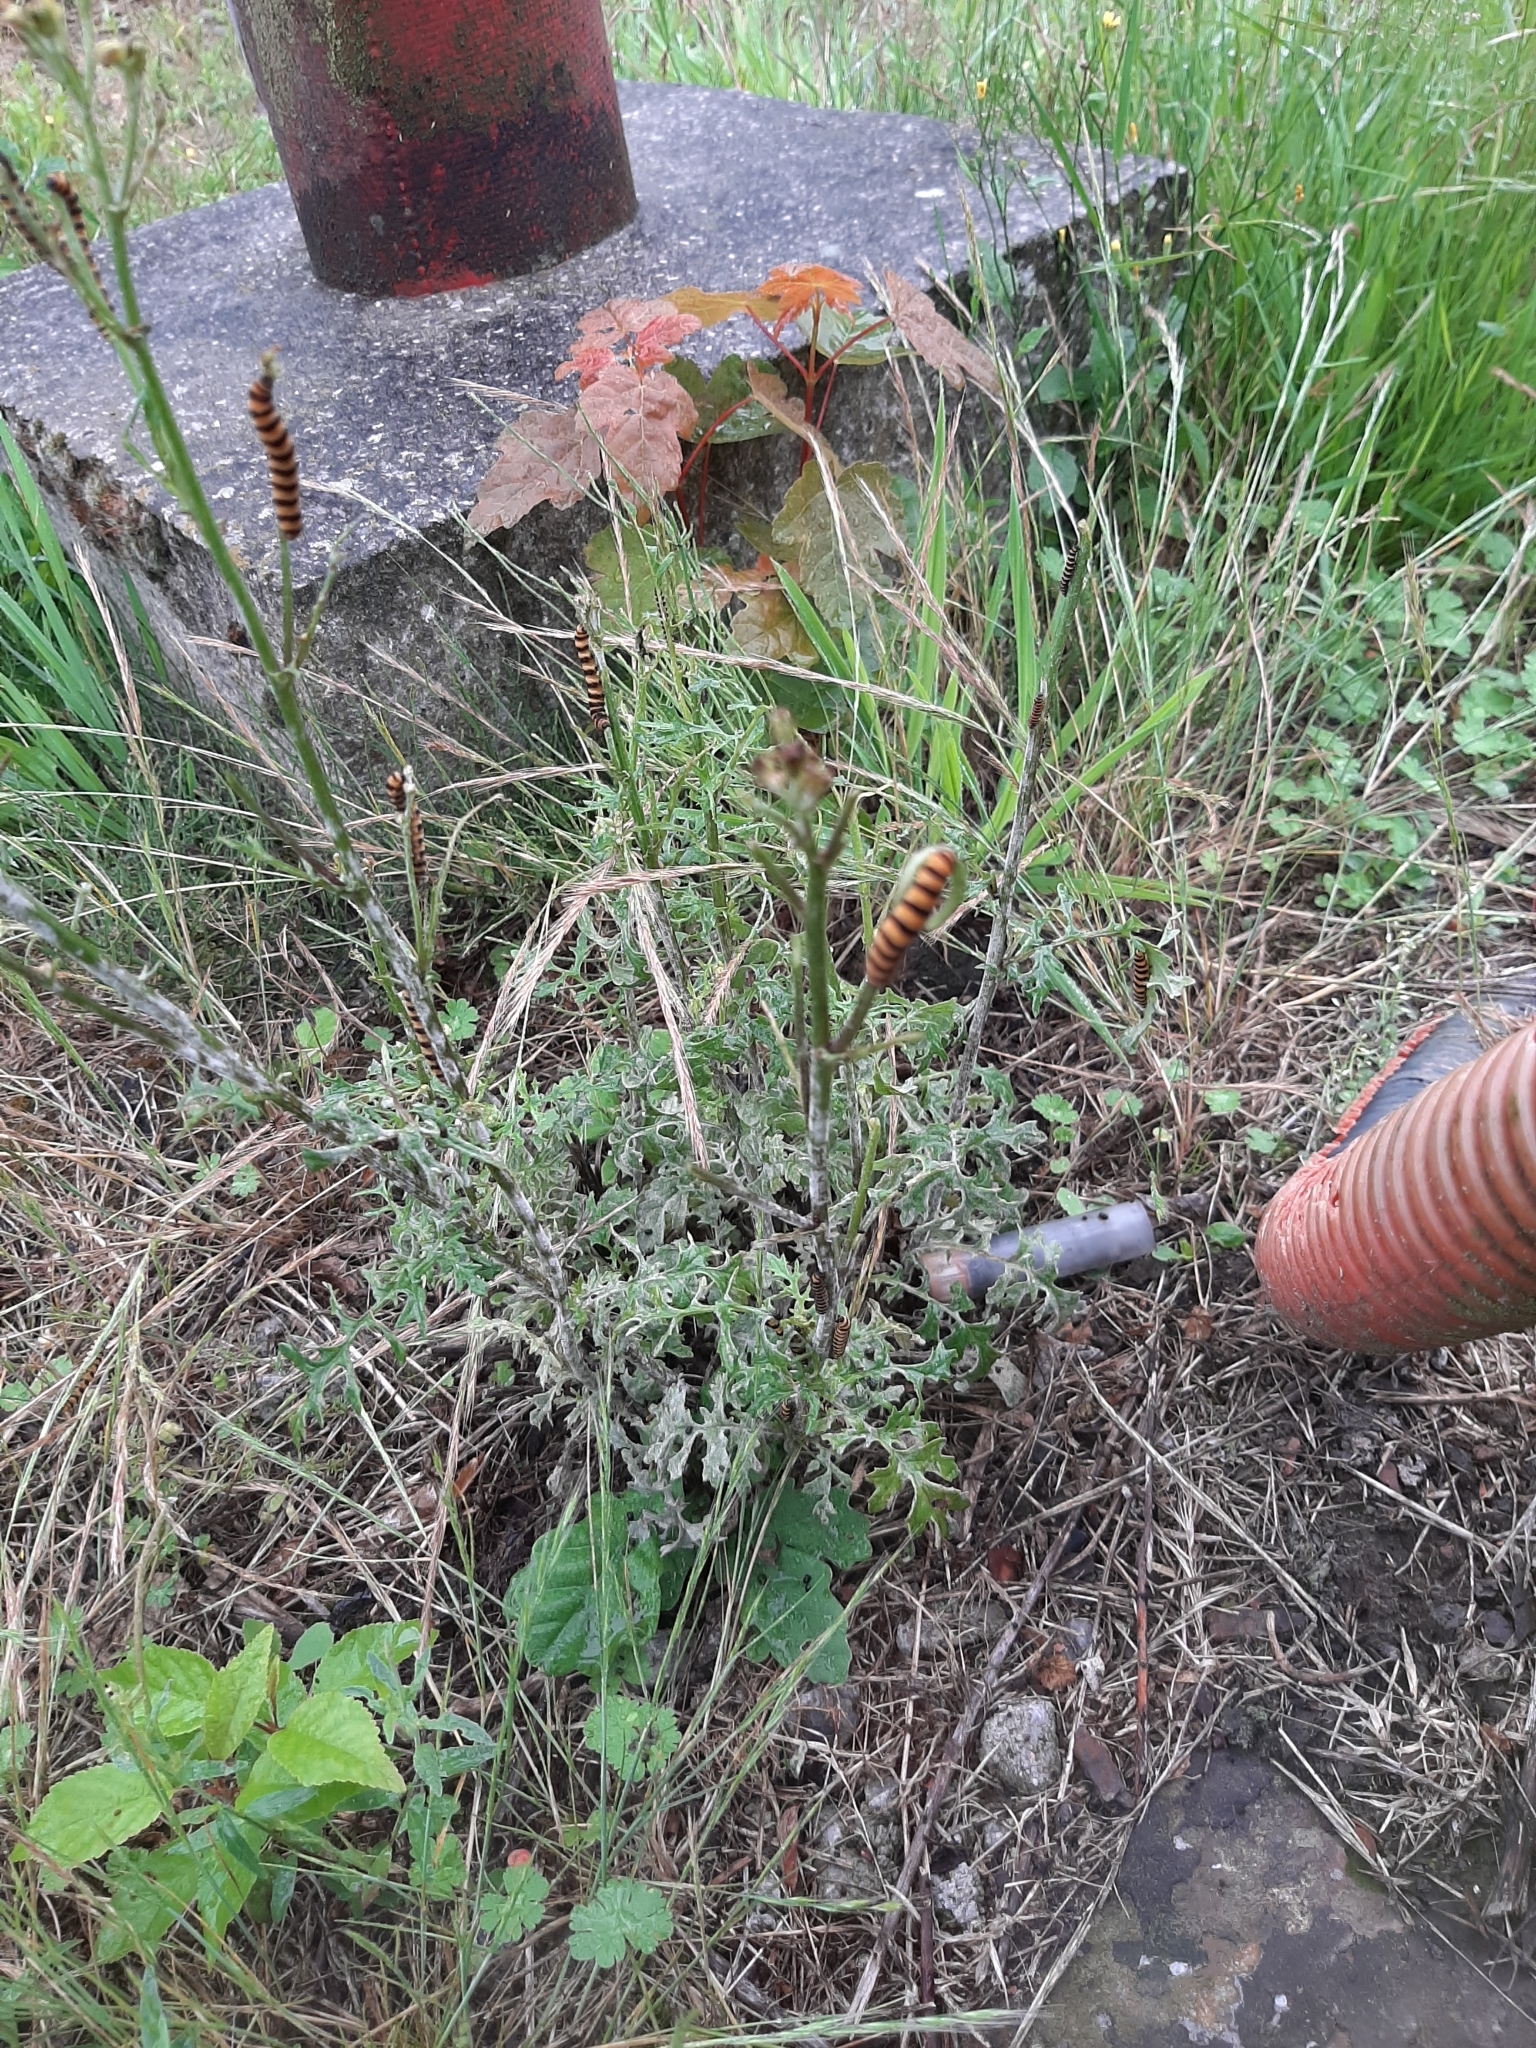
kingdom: Animalia
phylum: Arthropoda
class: Insecta
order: Lepidoptera
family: Erebidae
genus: Tyria
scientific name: Tyria jacobaeae
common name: Cinnabar
